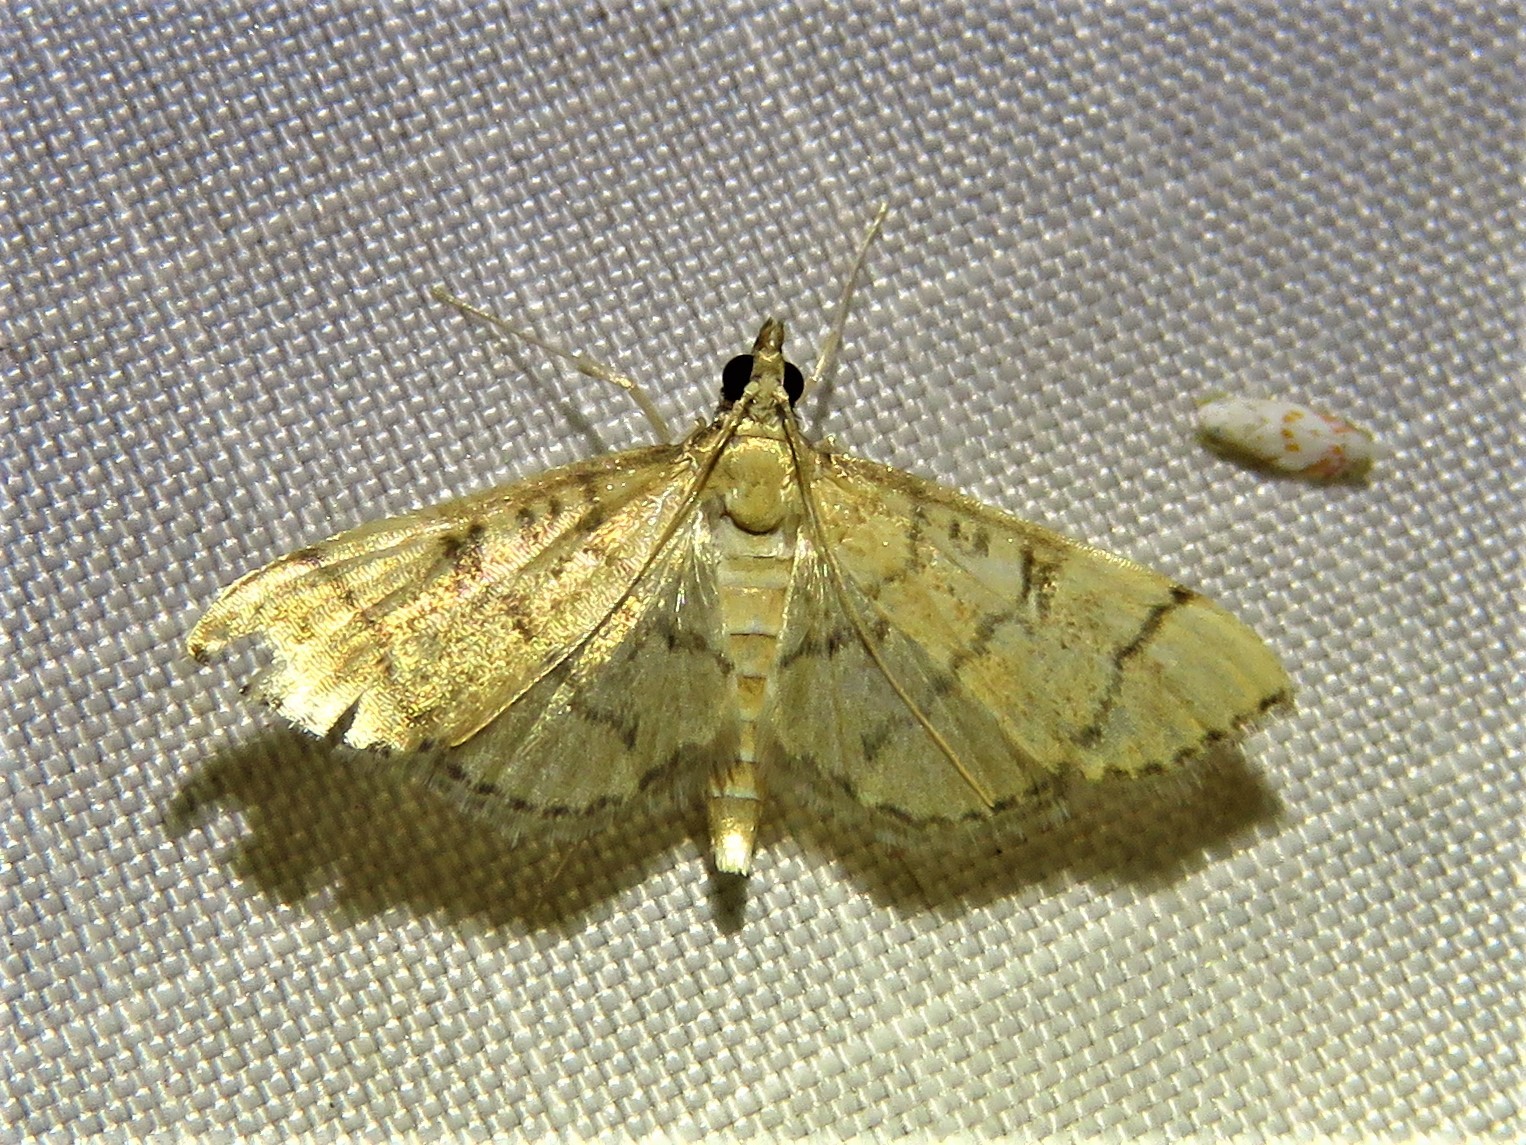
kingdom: Animalia
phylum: Arthropoda
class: Insecta
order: Lepidoptera
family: Crambidae
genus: Lamprosema
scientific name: Lamprosema Blepharomastix ranalis
